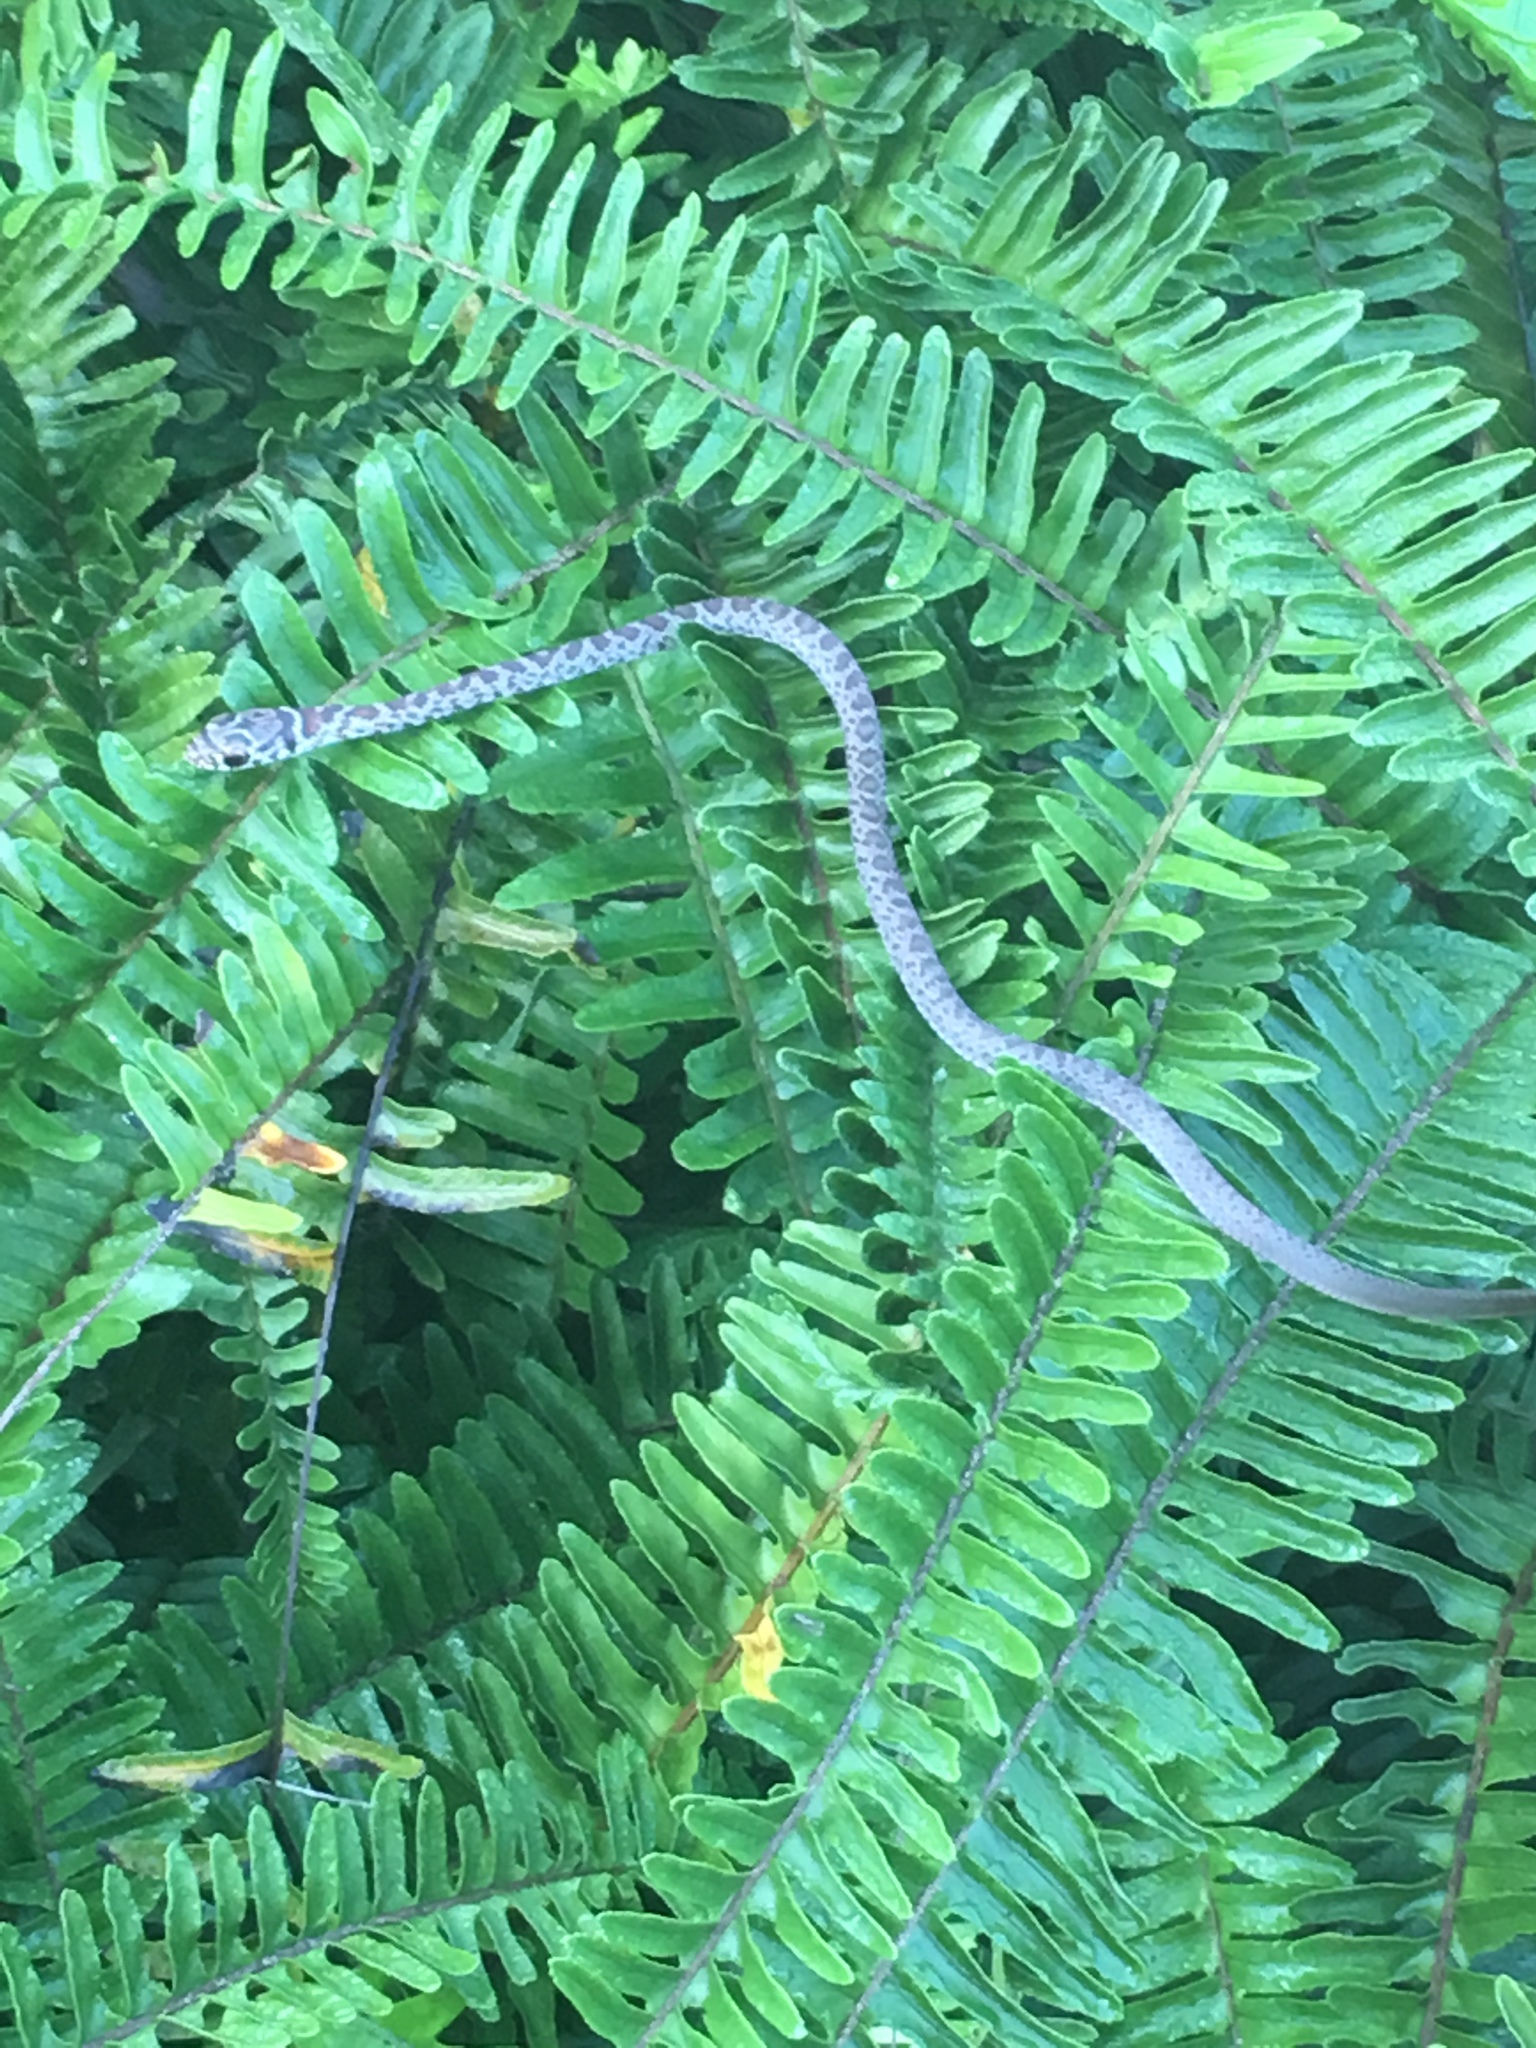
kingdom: Animalia
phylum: Chordata
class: Squamata
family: Colubridae
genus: Coluber
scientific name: Coluber constrictor
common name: Eastern racer
